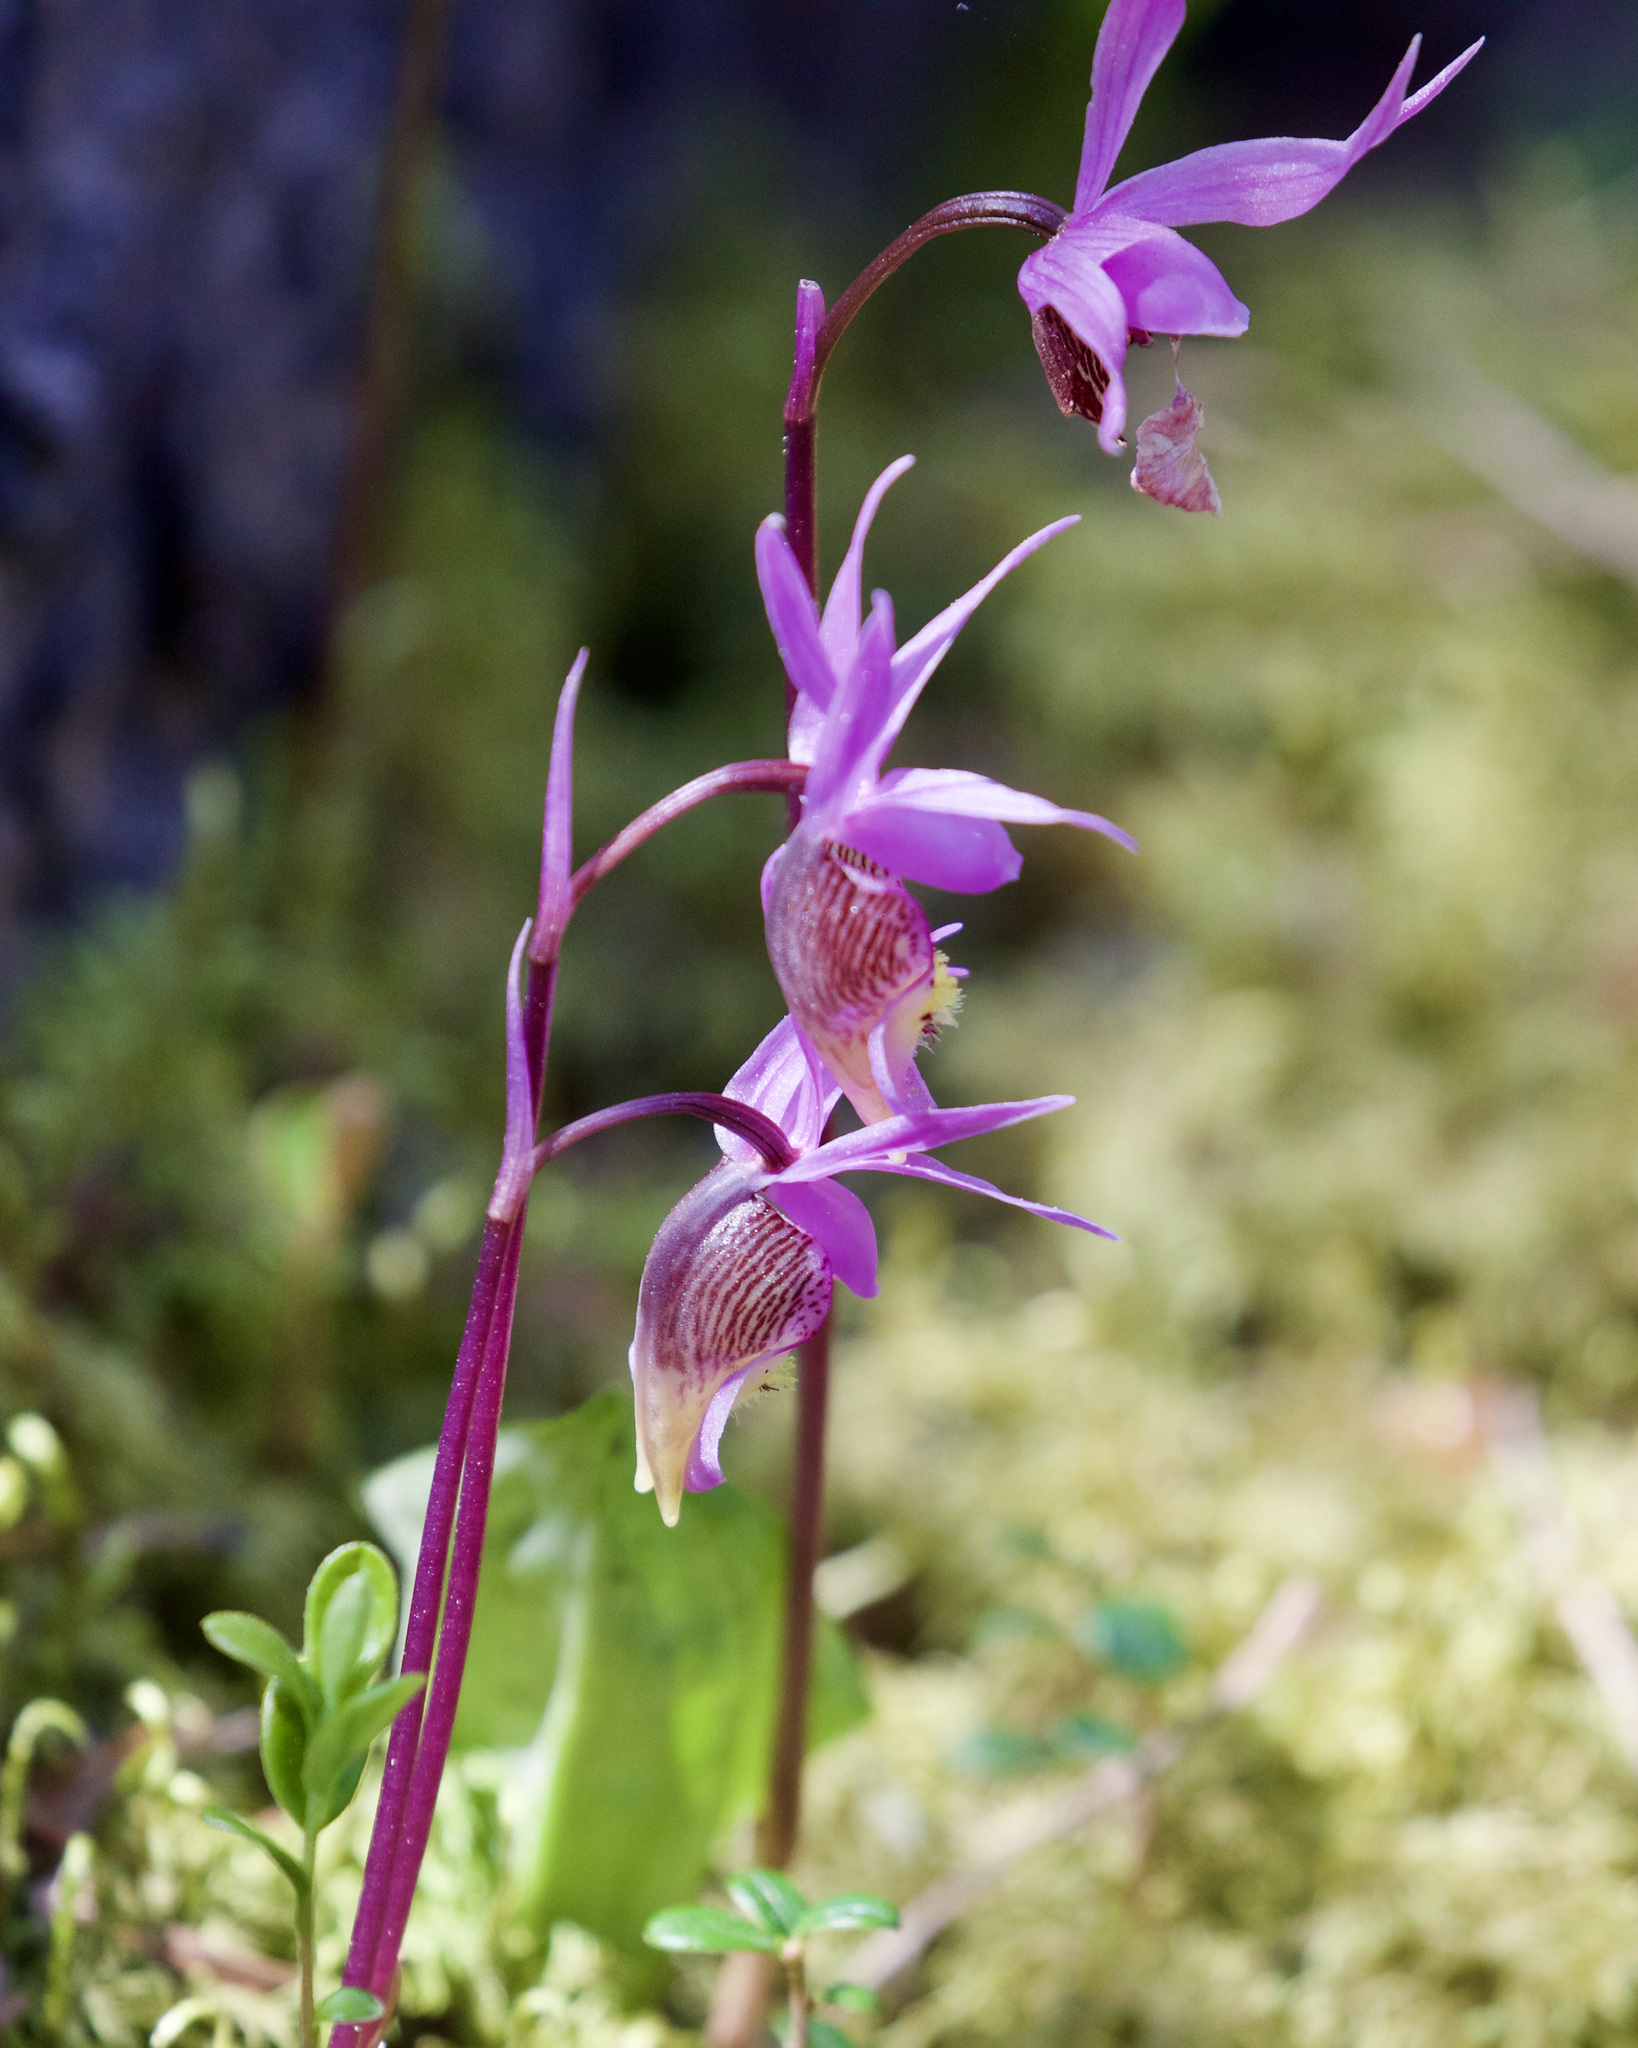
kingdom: Plantae
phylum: Tracheophyta
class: Liliopsida
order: Asparagales
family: Orchidaceae
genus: Calypso
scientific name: Calypso bulbosa
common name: Calypso
